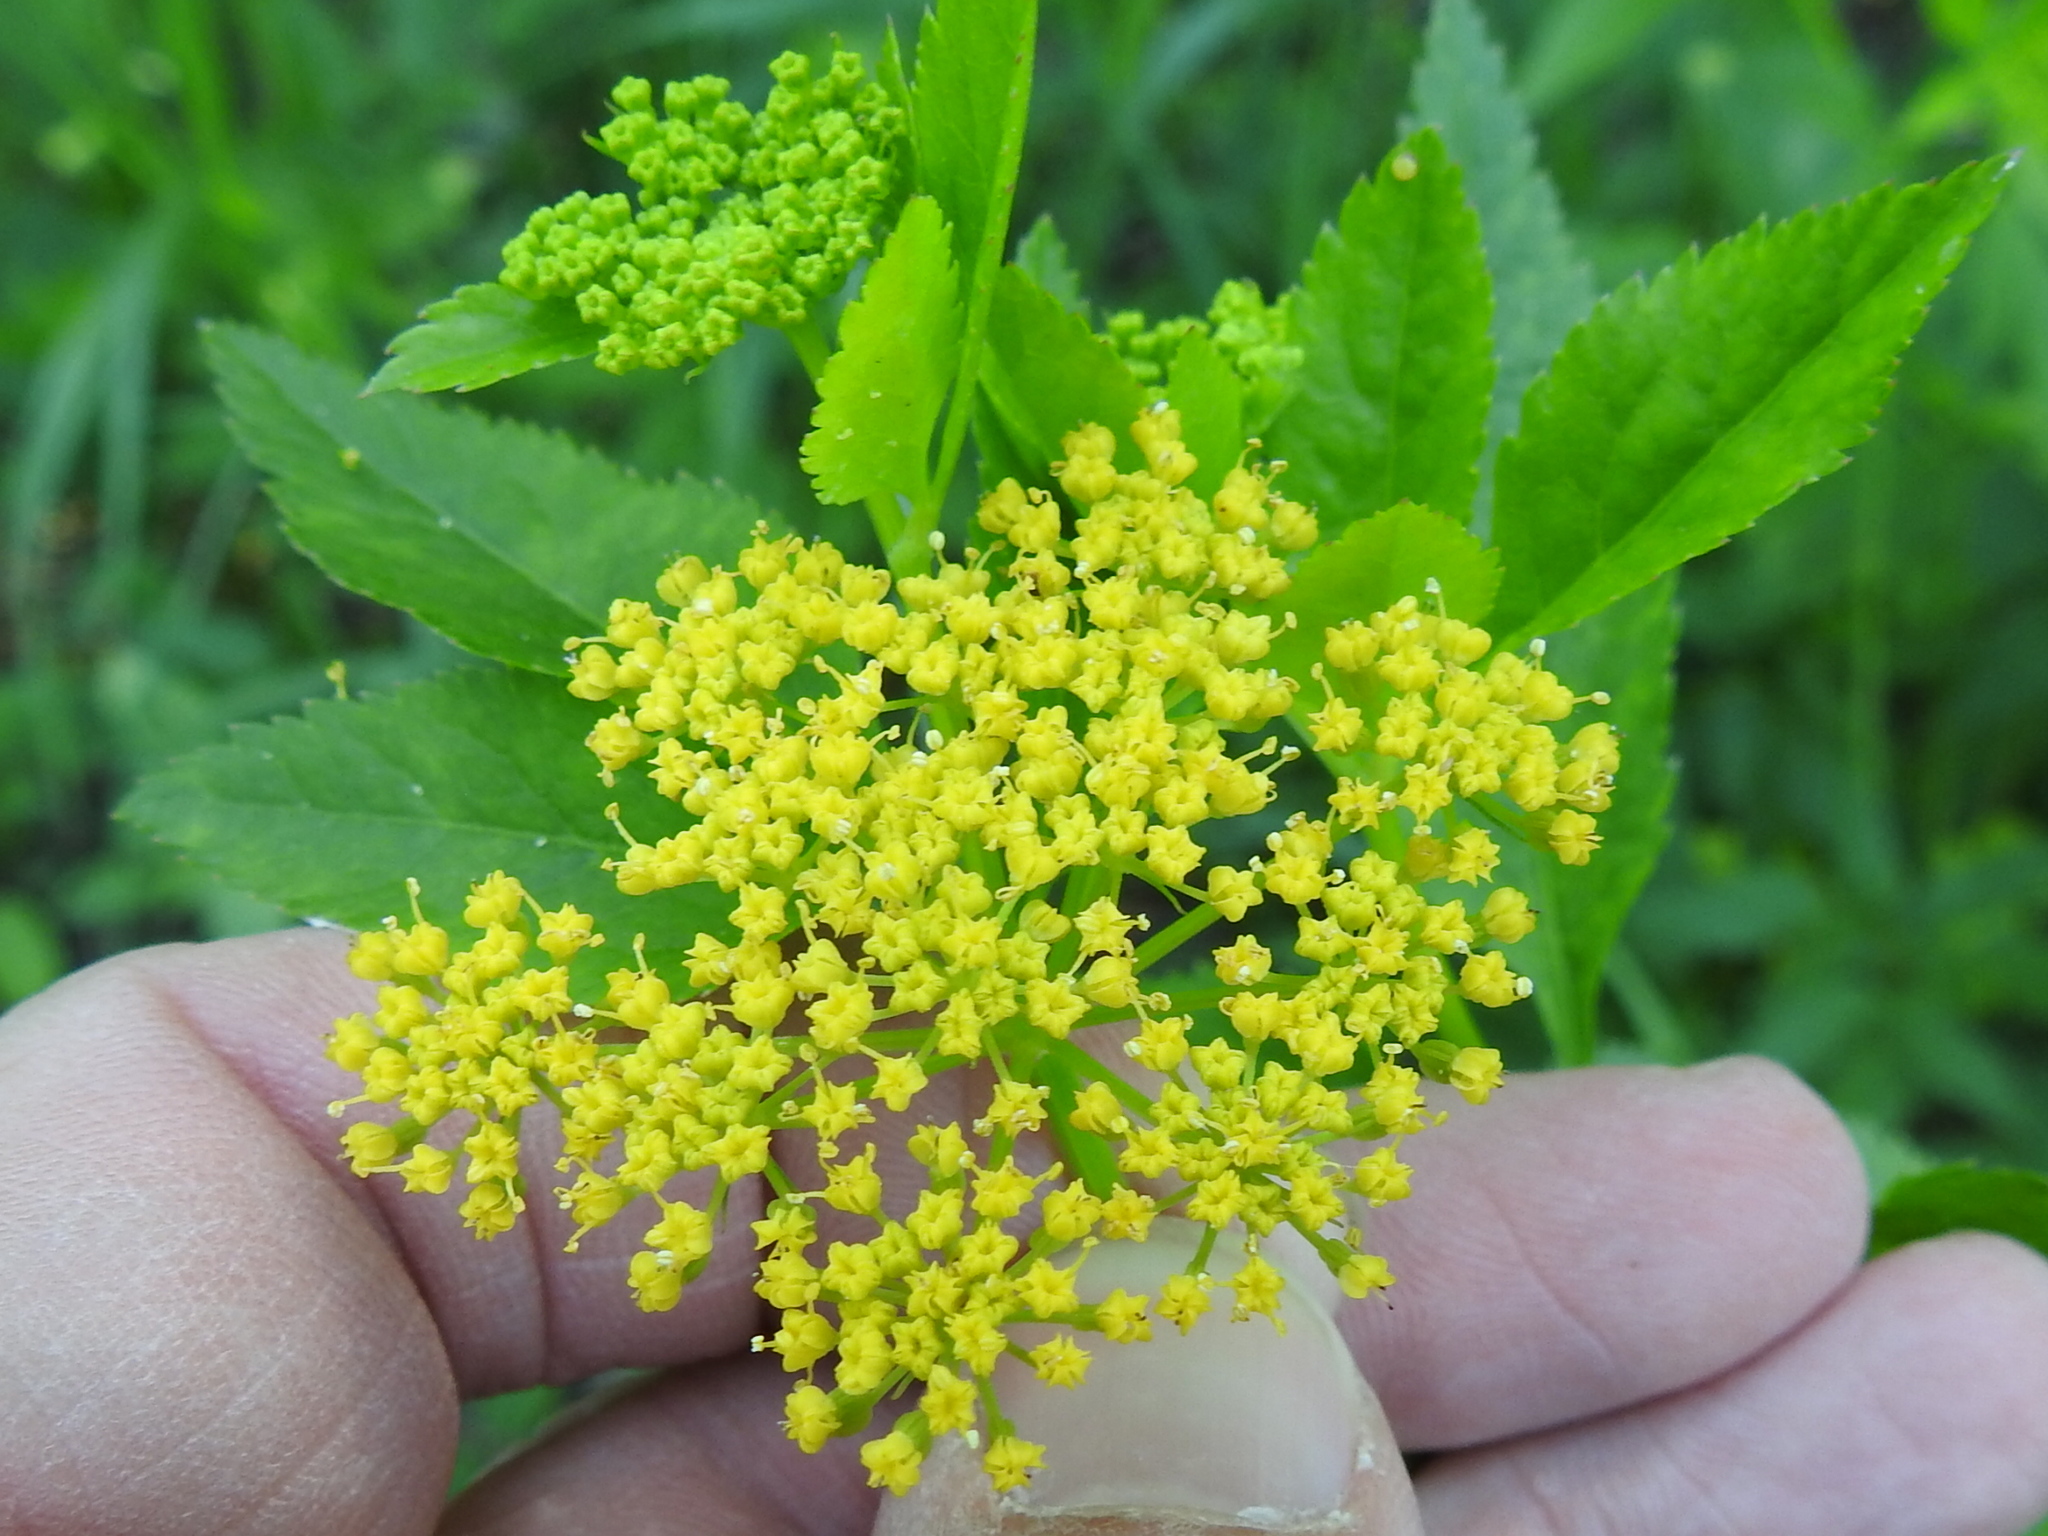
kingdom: Plantae
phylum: Tracheophyta
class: Magnoliopsida
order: Apiales
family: Apiaceae
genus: Zizia
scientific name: Zizia aurea
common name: Golden alexanders
